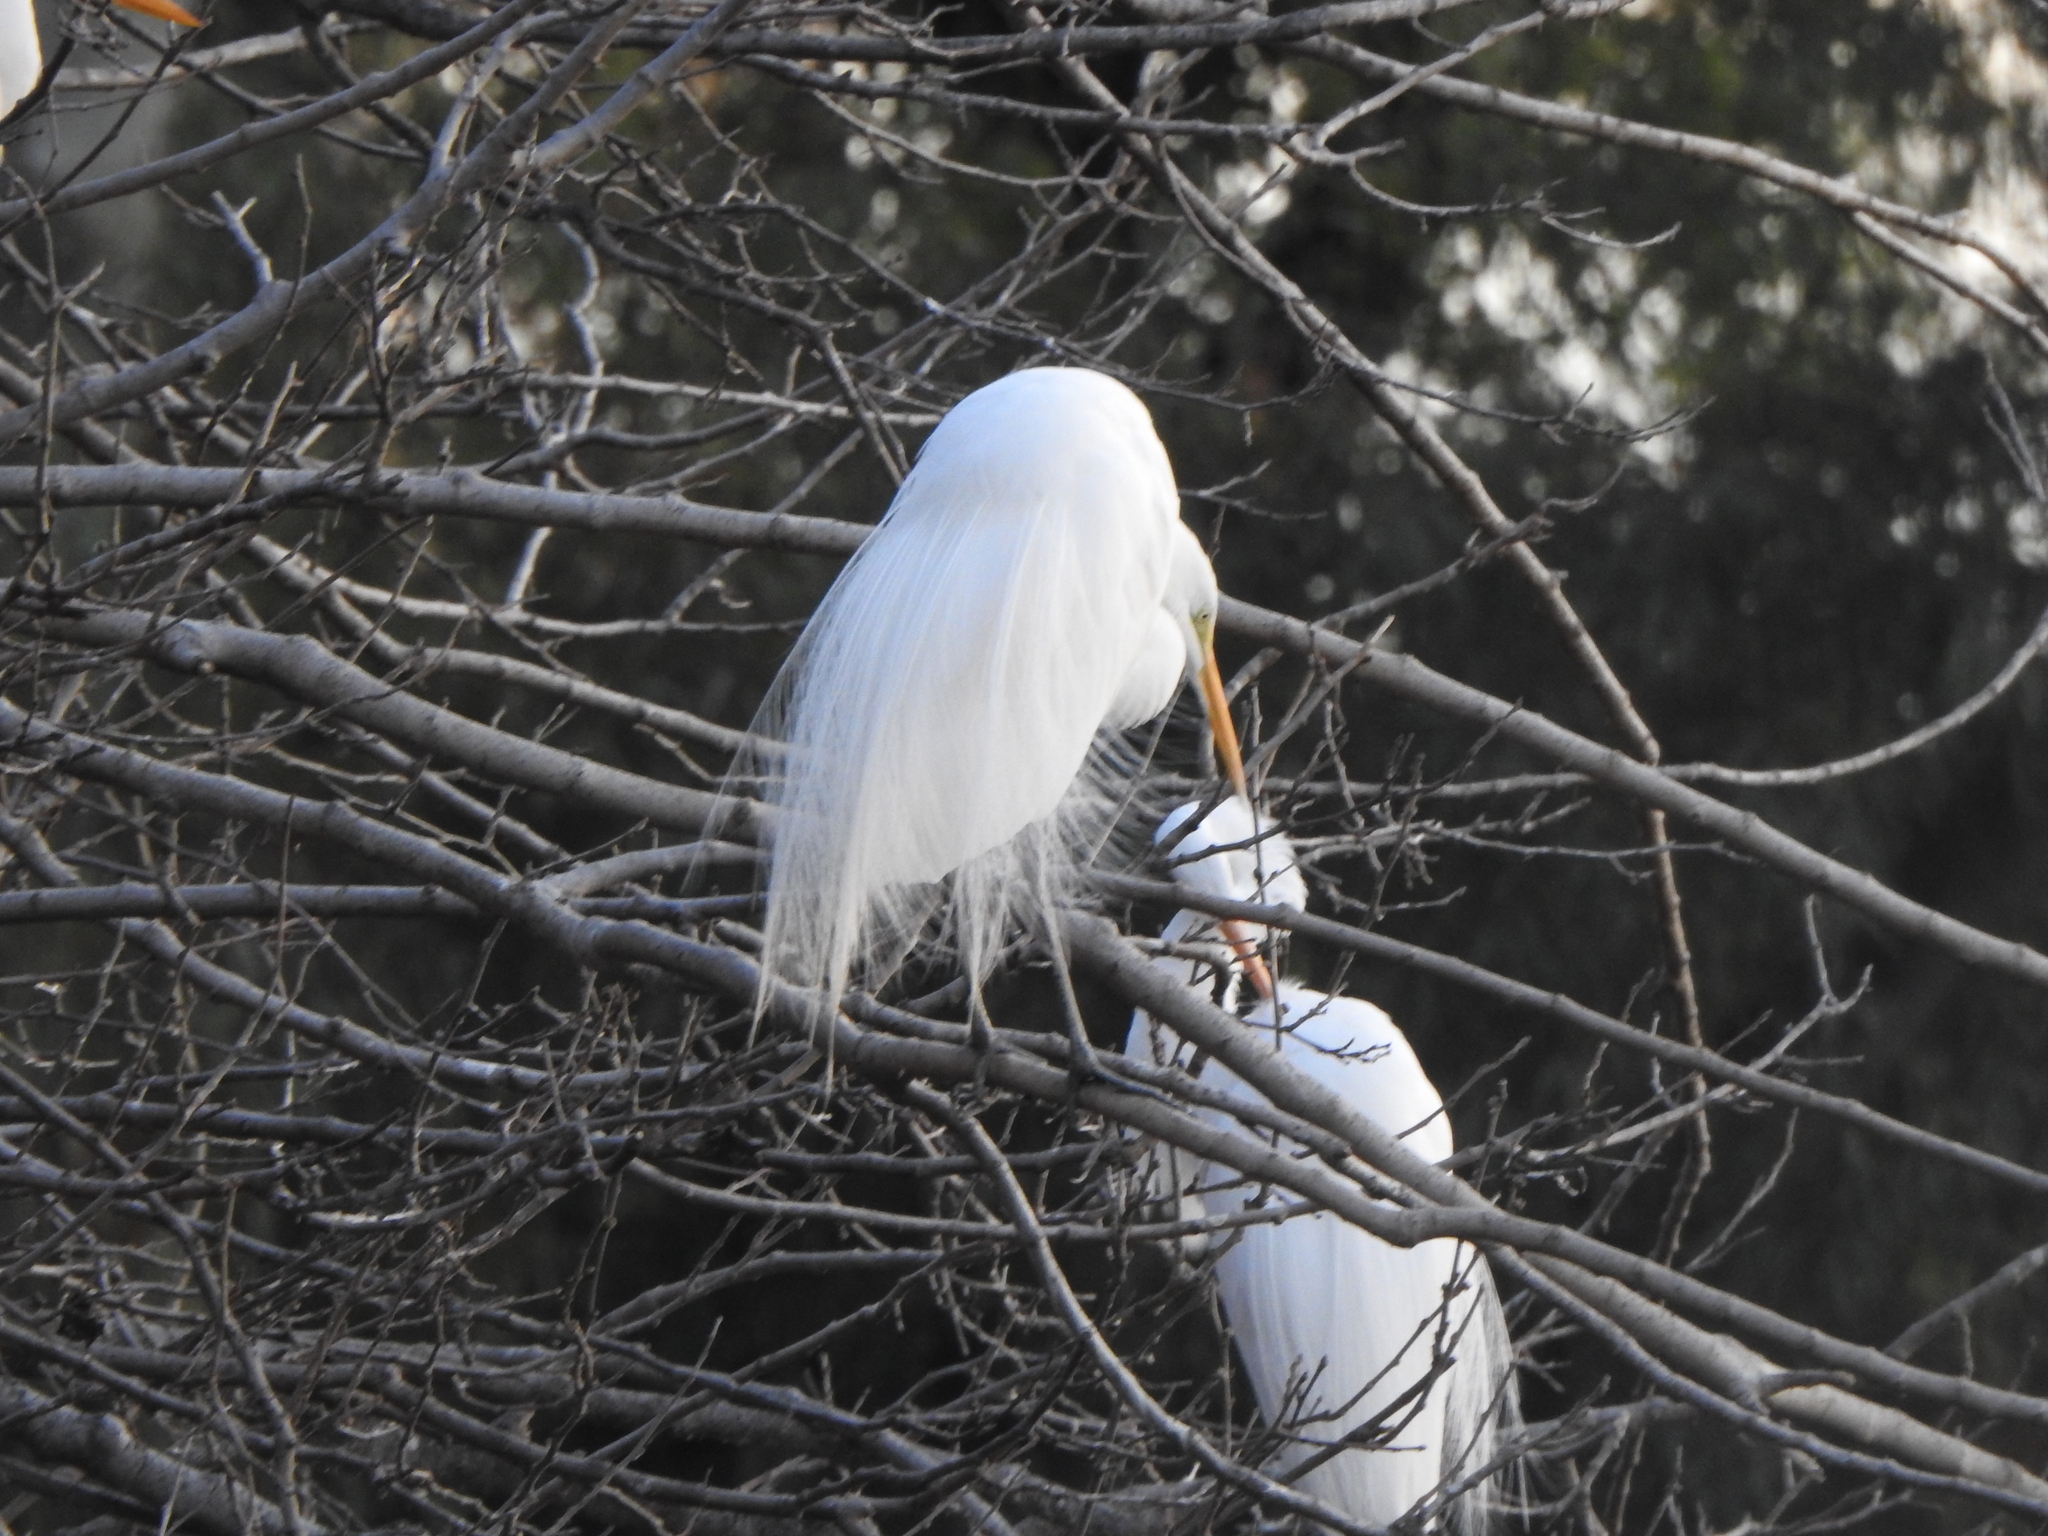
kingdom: Animalia
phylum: Chordata
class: Aves
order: Pelecaniformes
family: Ardeidae
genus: Ardea
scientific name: Ardea alba
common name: Great egret
